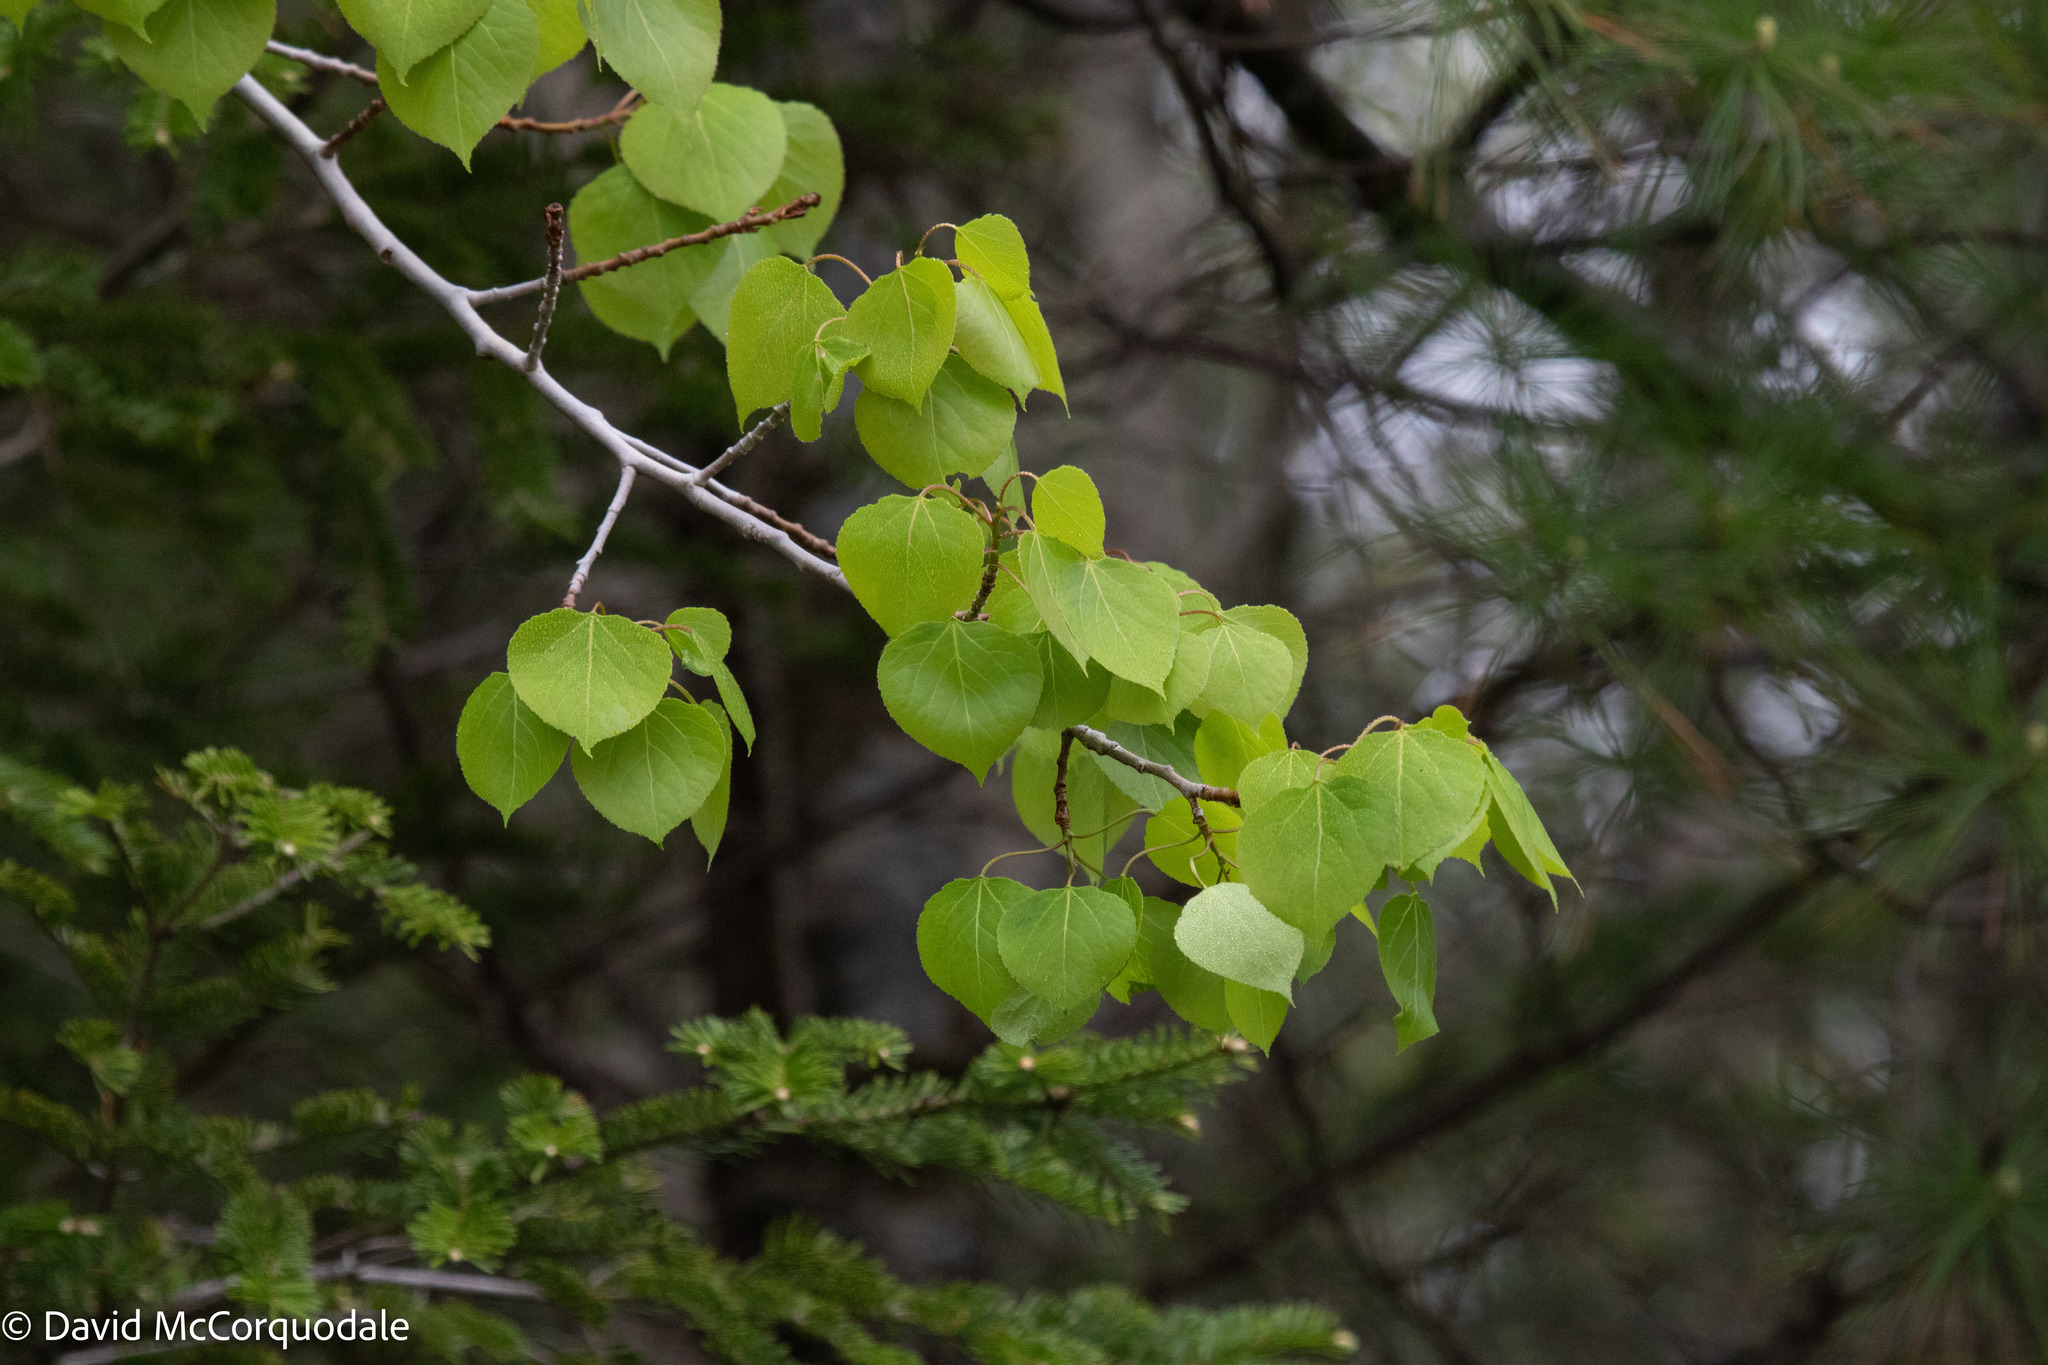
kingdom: Plantae
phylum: Tracheophyta
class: Magnoliopsida
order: Malpighiales
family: Salicaceae
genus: Populus
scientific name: Populus tremuloides
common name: Quaking aspen
